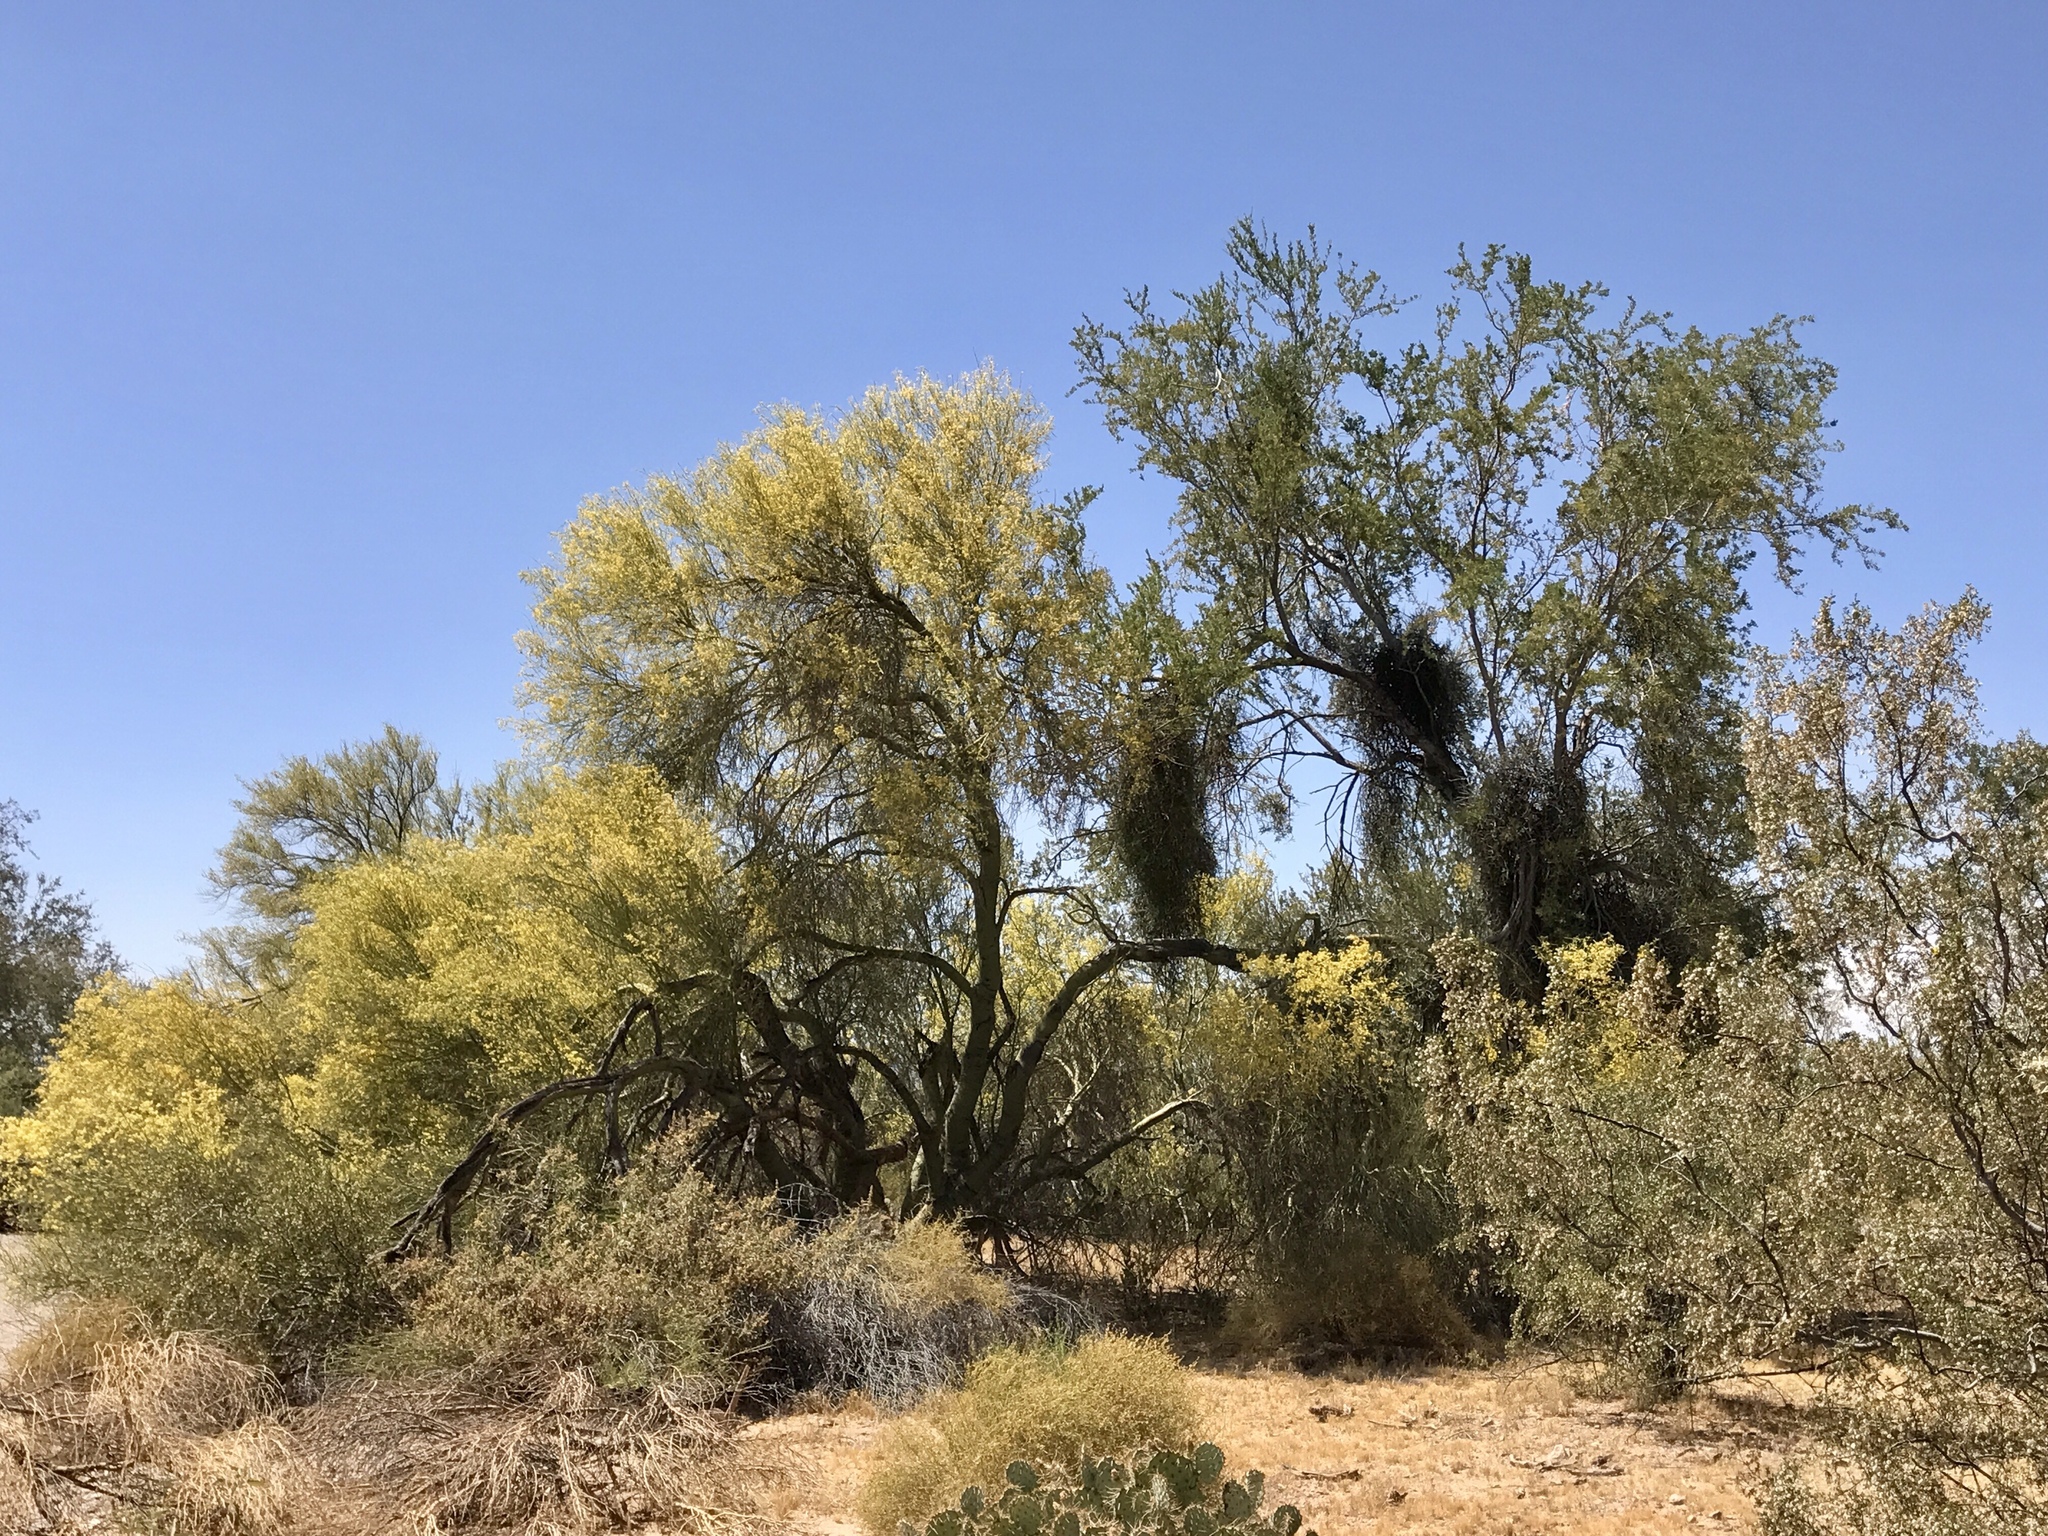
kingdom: Plantae
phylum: Tracheophyta
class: Magnoliopsida
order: Fabales
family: Fabaceae
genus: Parkinsonia
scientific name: Parkinsonia florida
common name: Blue paloverde
